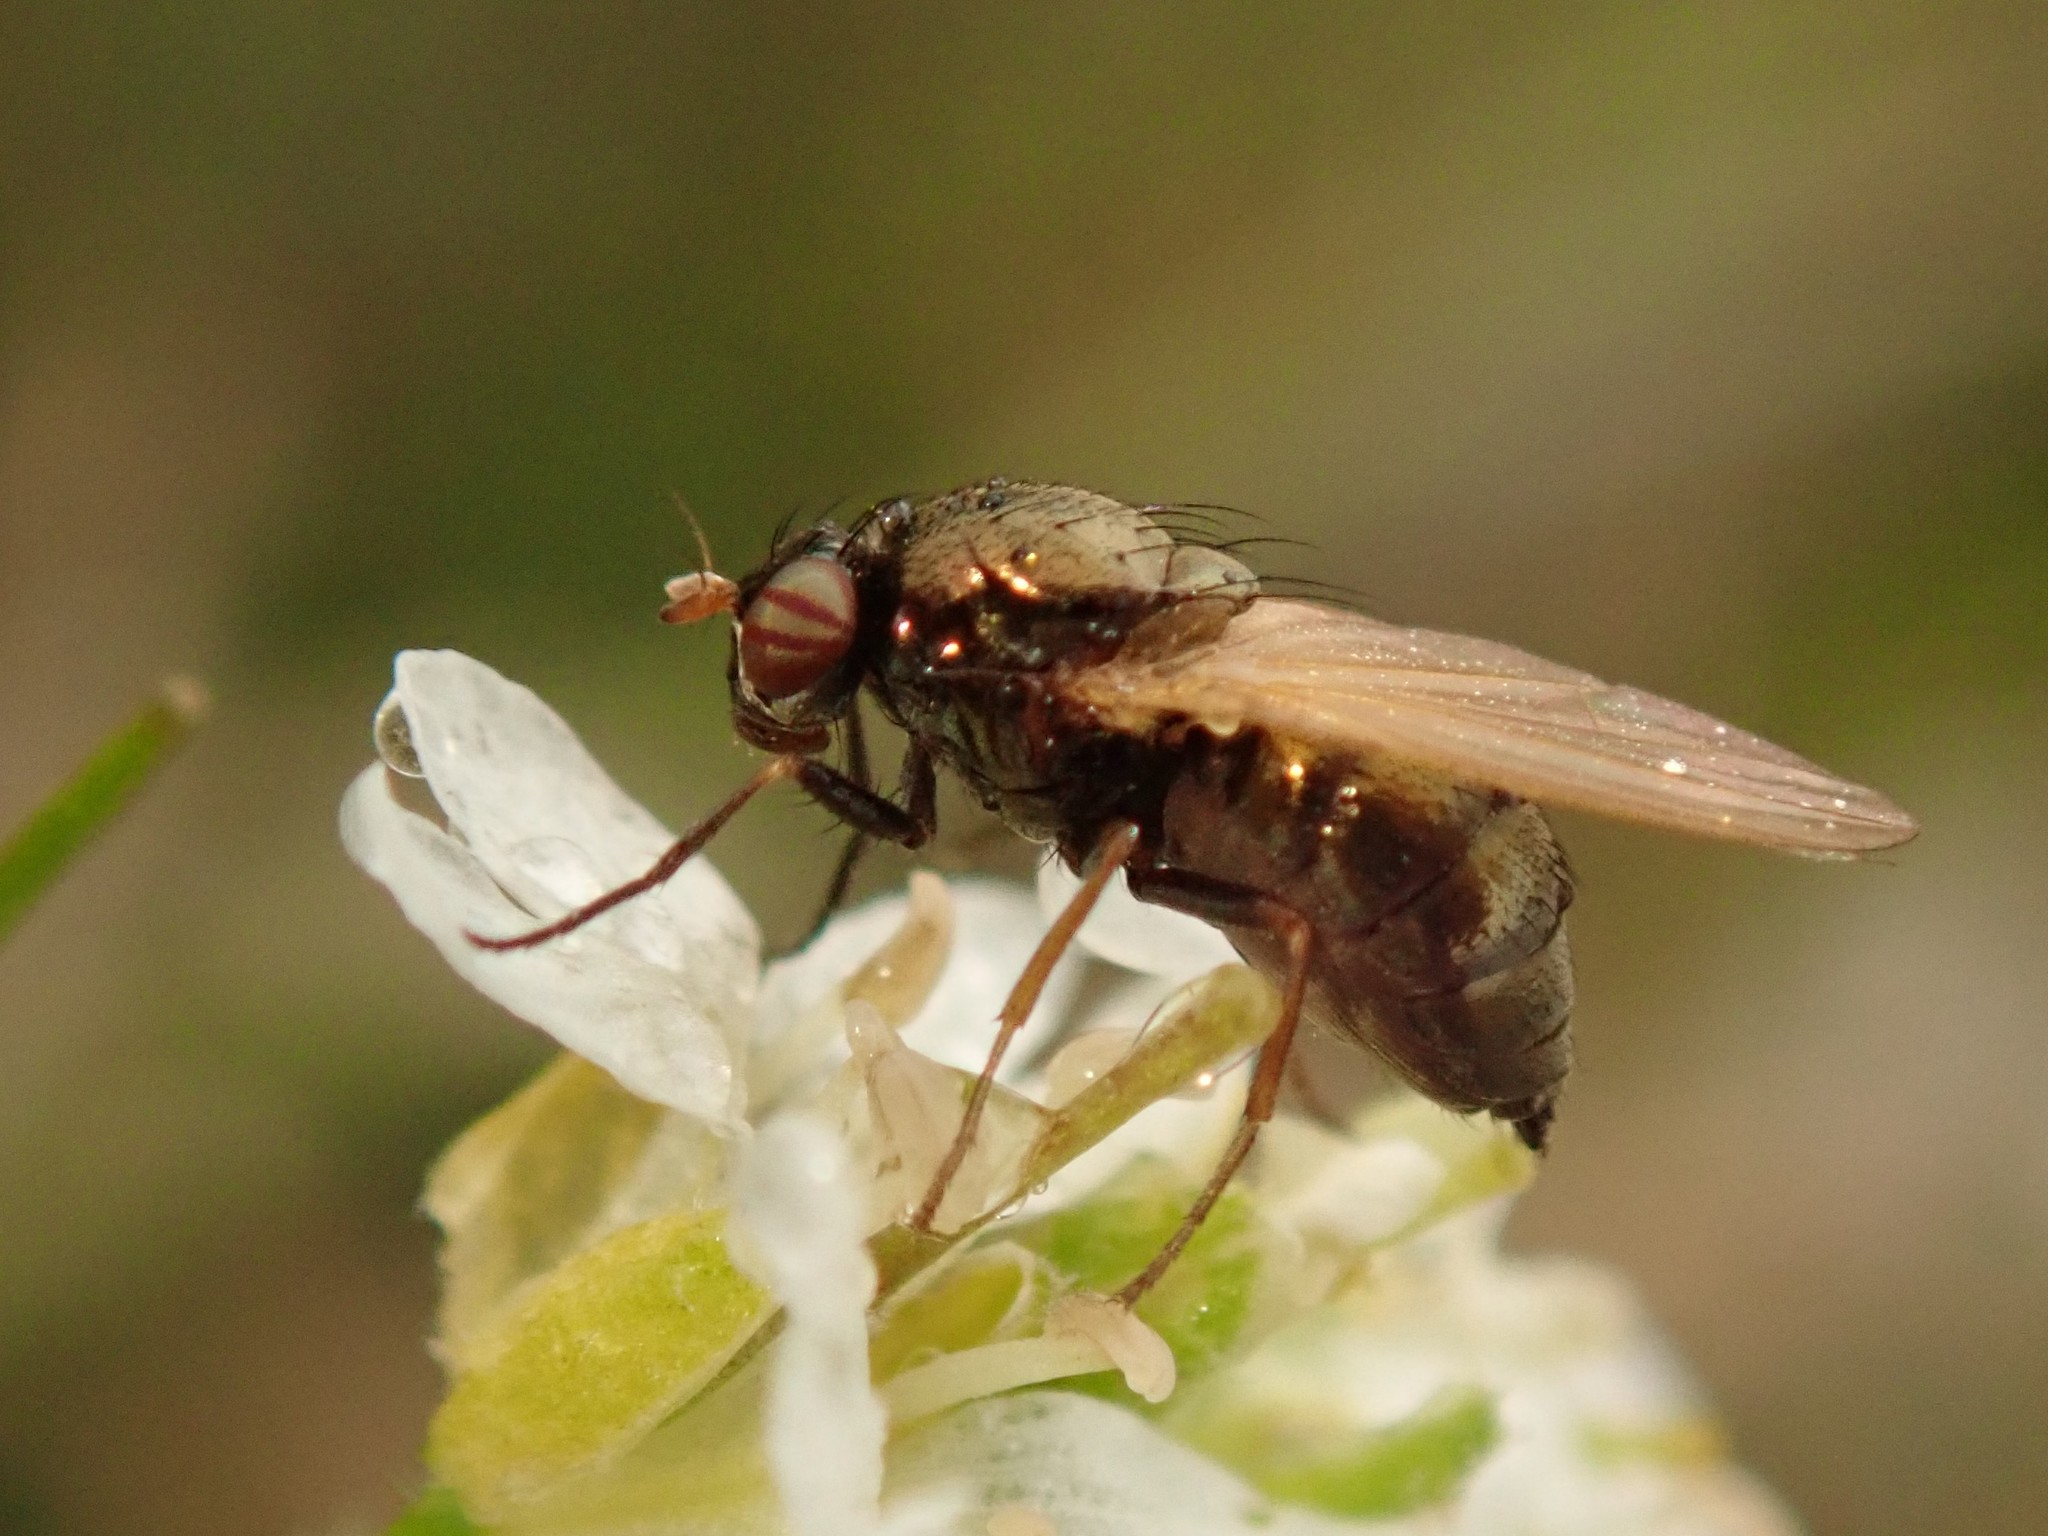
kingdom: Animalia
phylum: Arthropoda
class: Insecta
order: Diptera
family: Lauxaniidae
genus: Calliopum
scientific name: Calliopum
